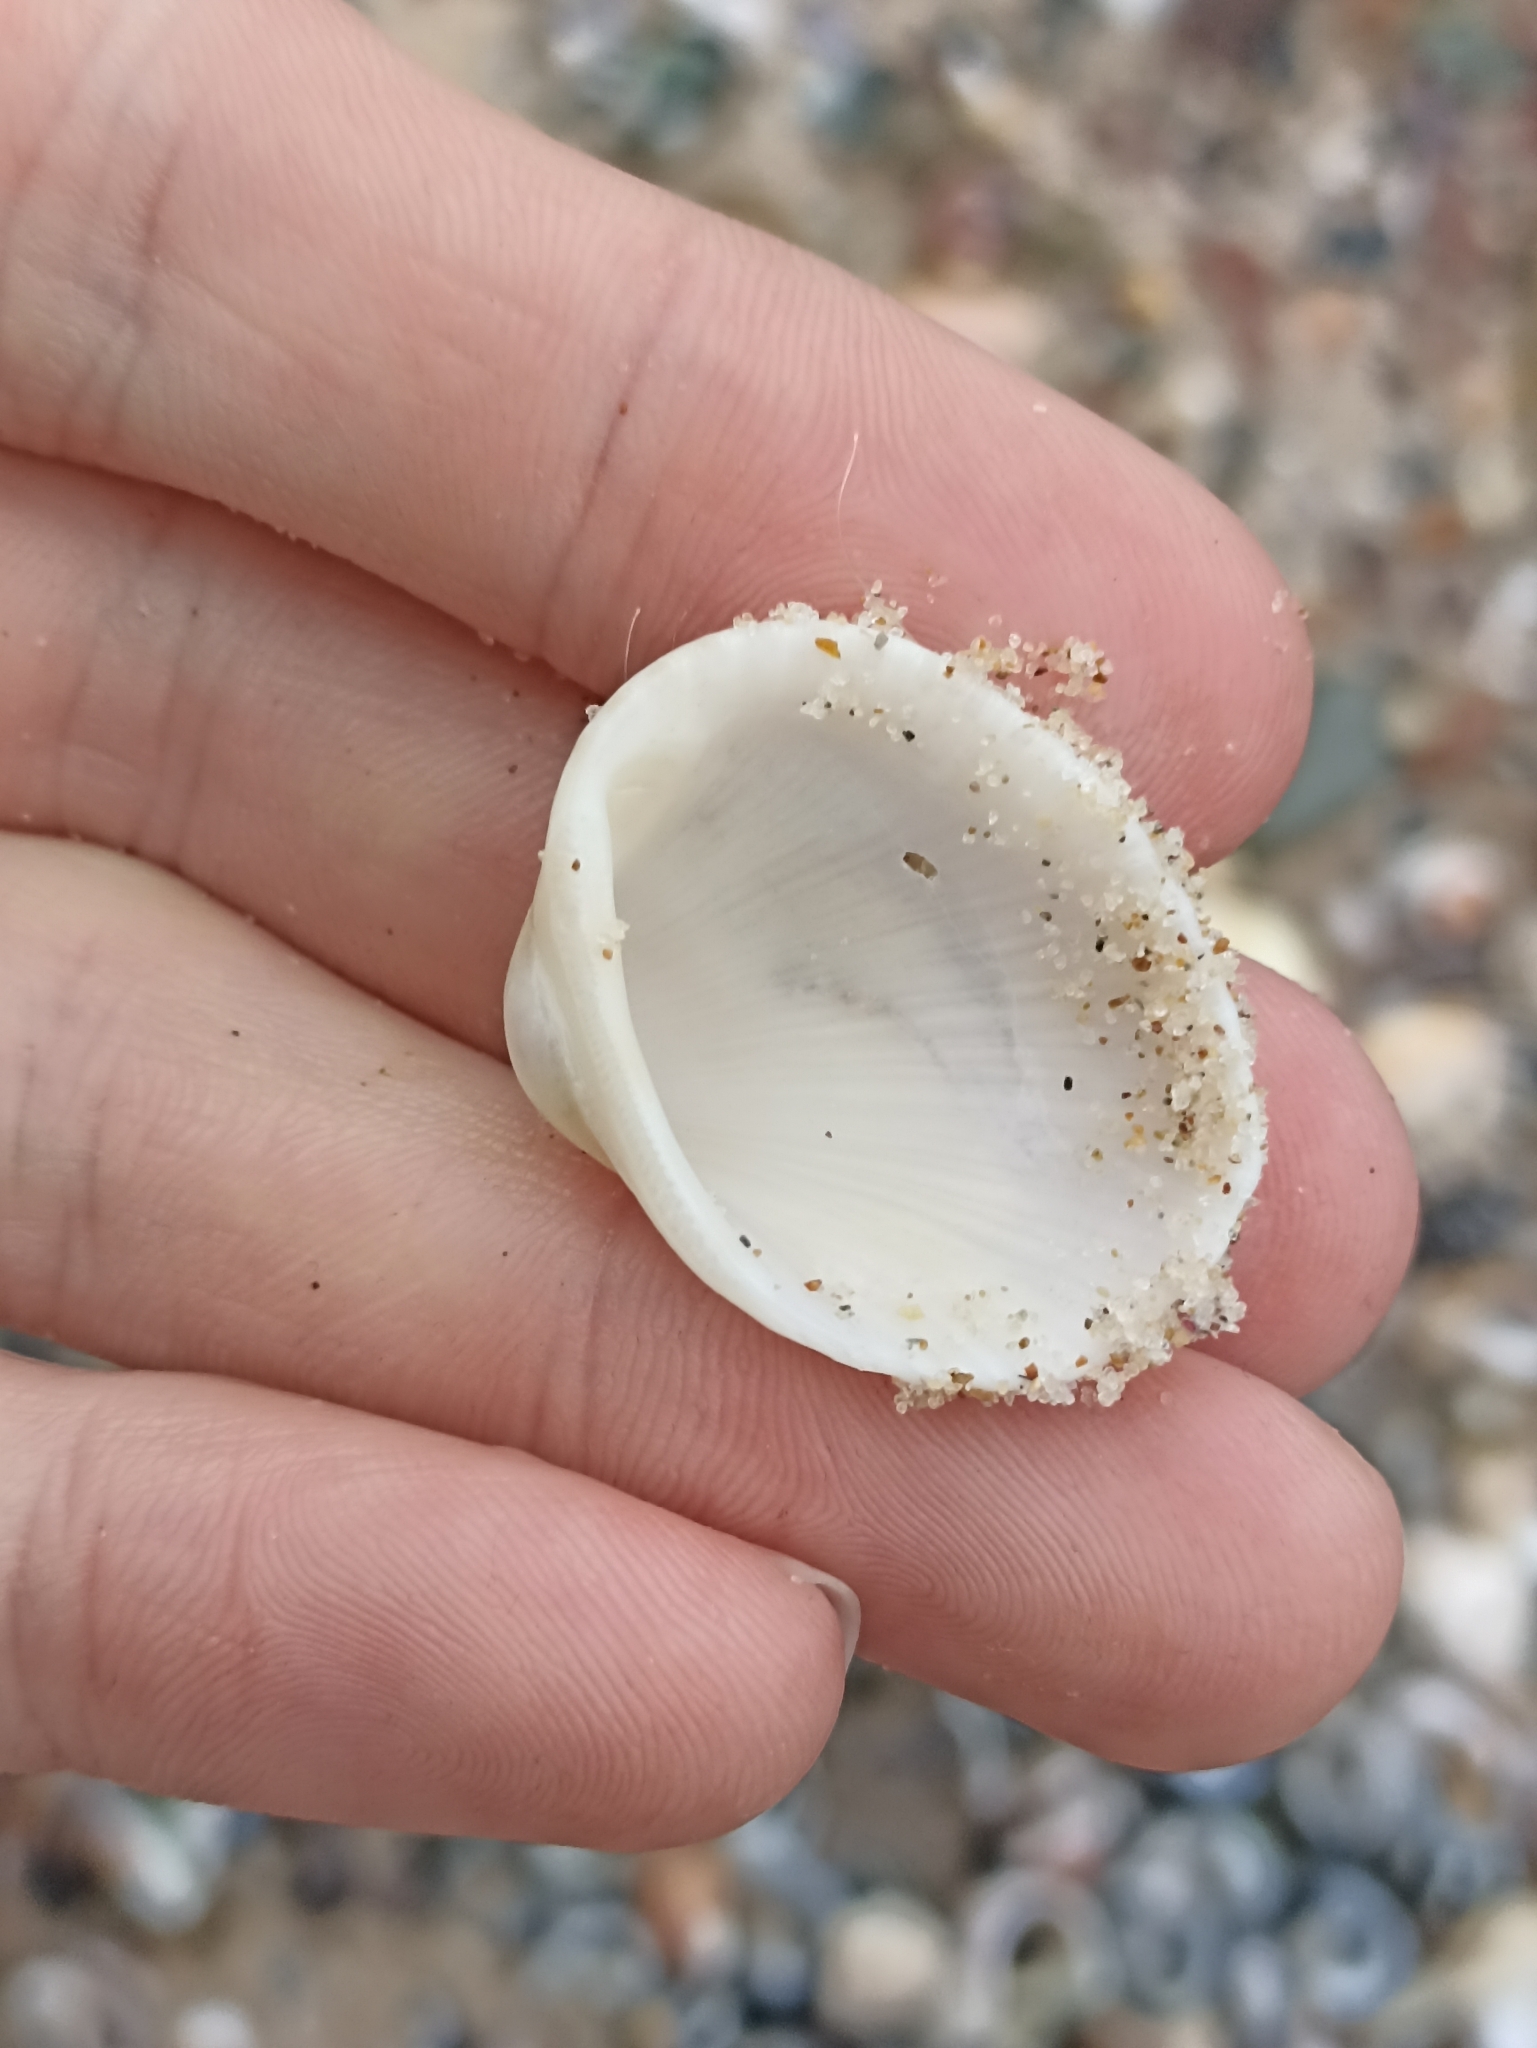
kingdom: Animalia
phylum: Mollusca
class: Bivalvia
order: Arcida
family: Arcidae
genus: Anadara
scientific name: Anadara trapezia
